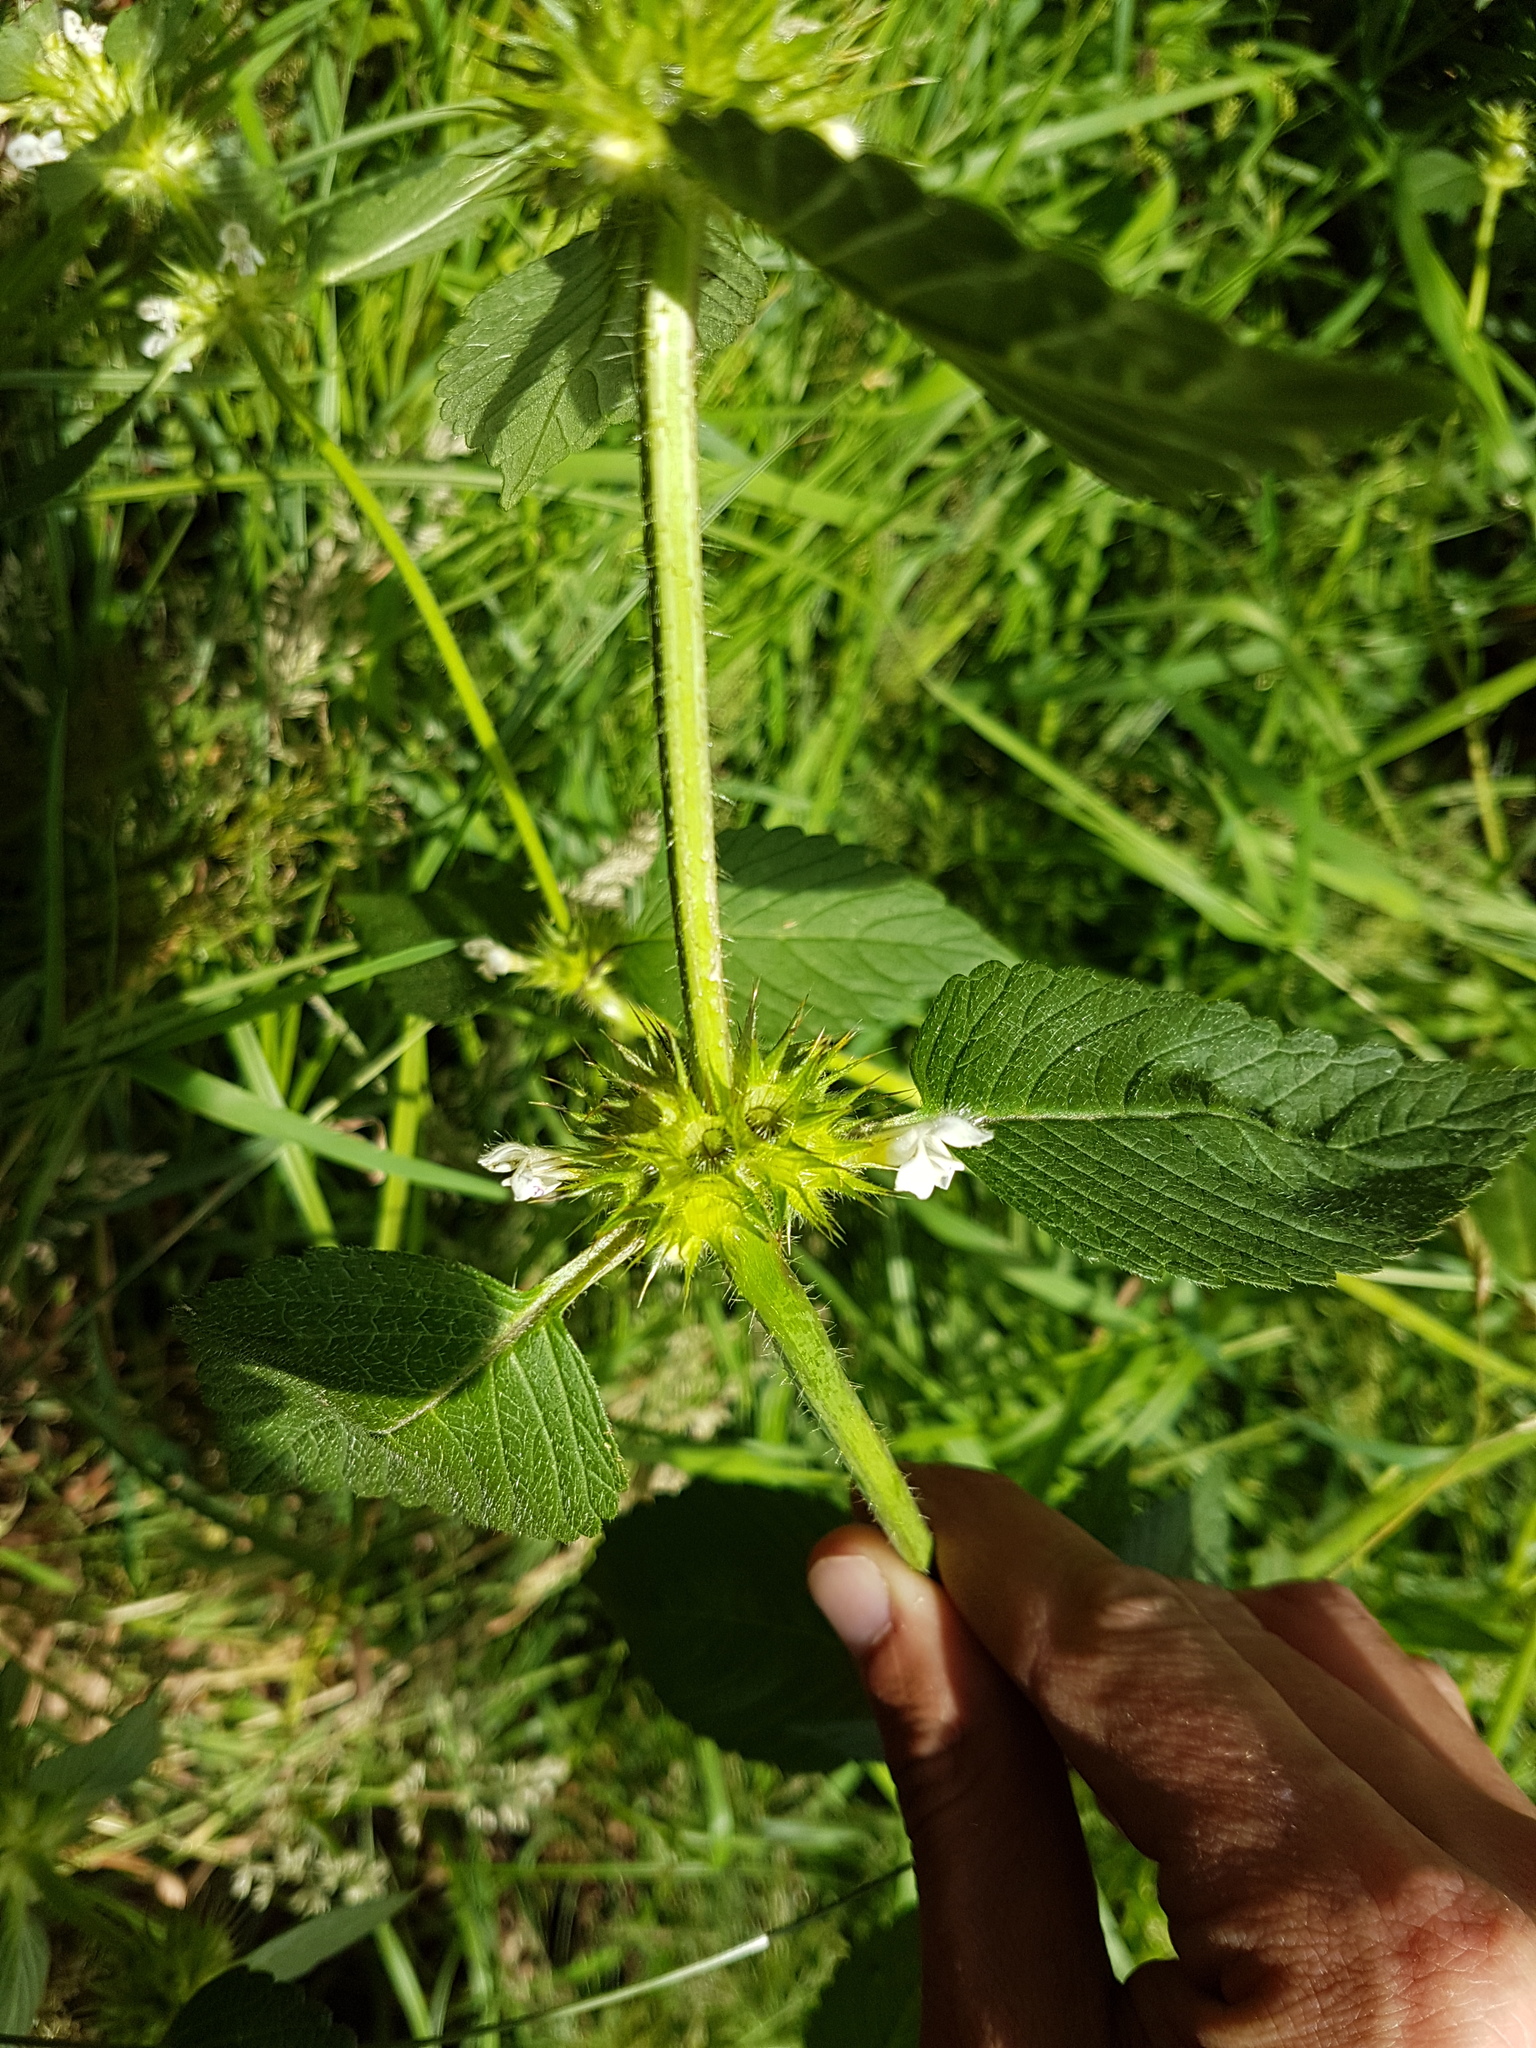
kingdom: Plantae
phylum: Tracheophyta
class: Magnoliopsida
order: Lamiales
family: Lamiaceae
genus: Galeopsis
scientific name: Galeopsis tetrahit
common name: Common hemp-nettle
